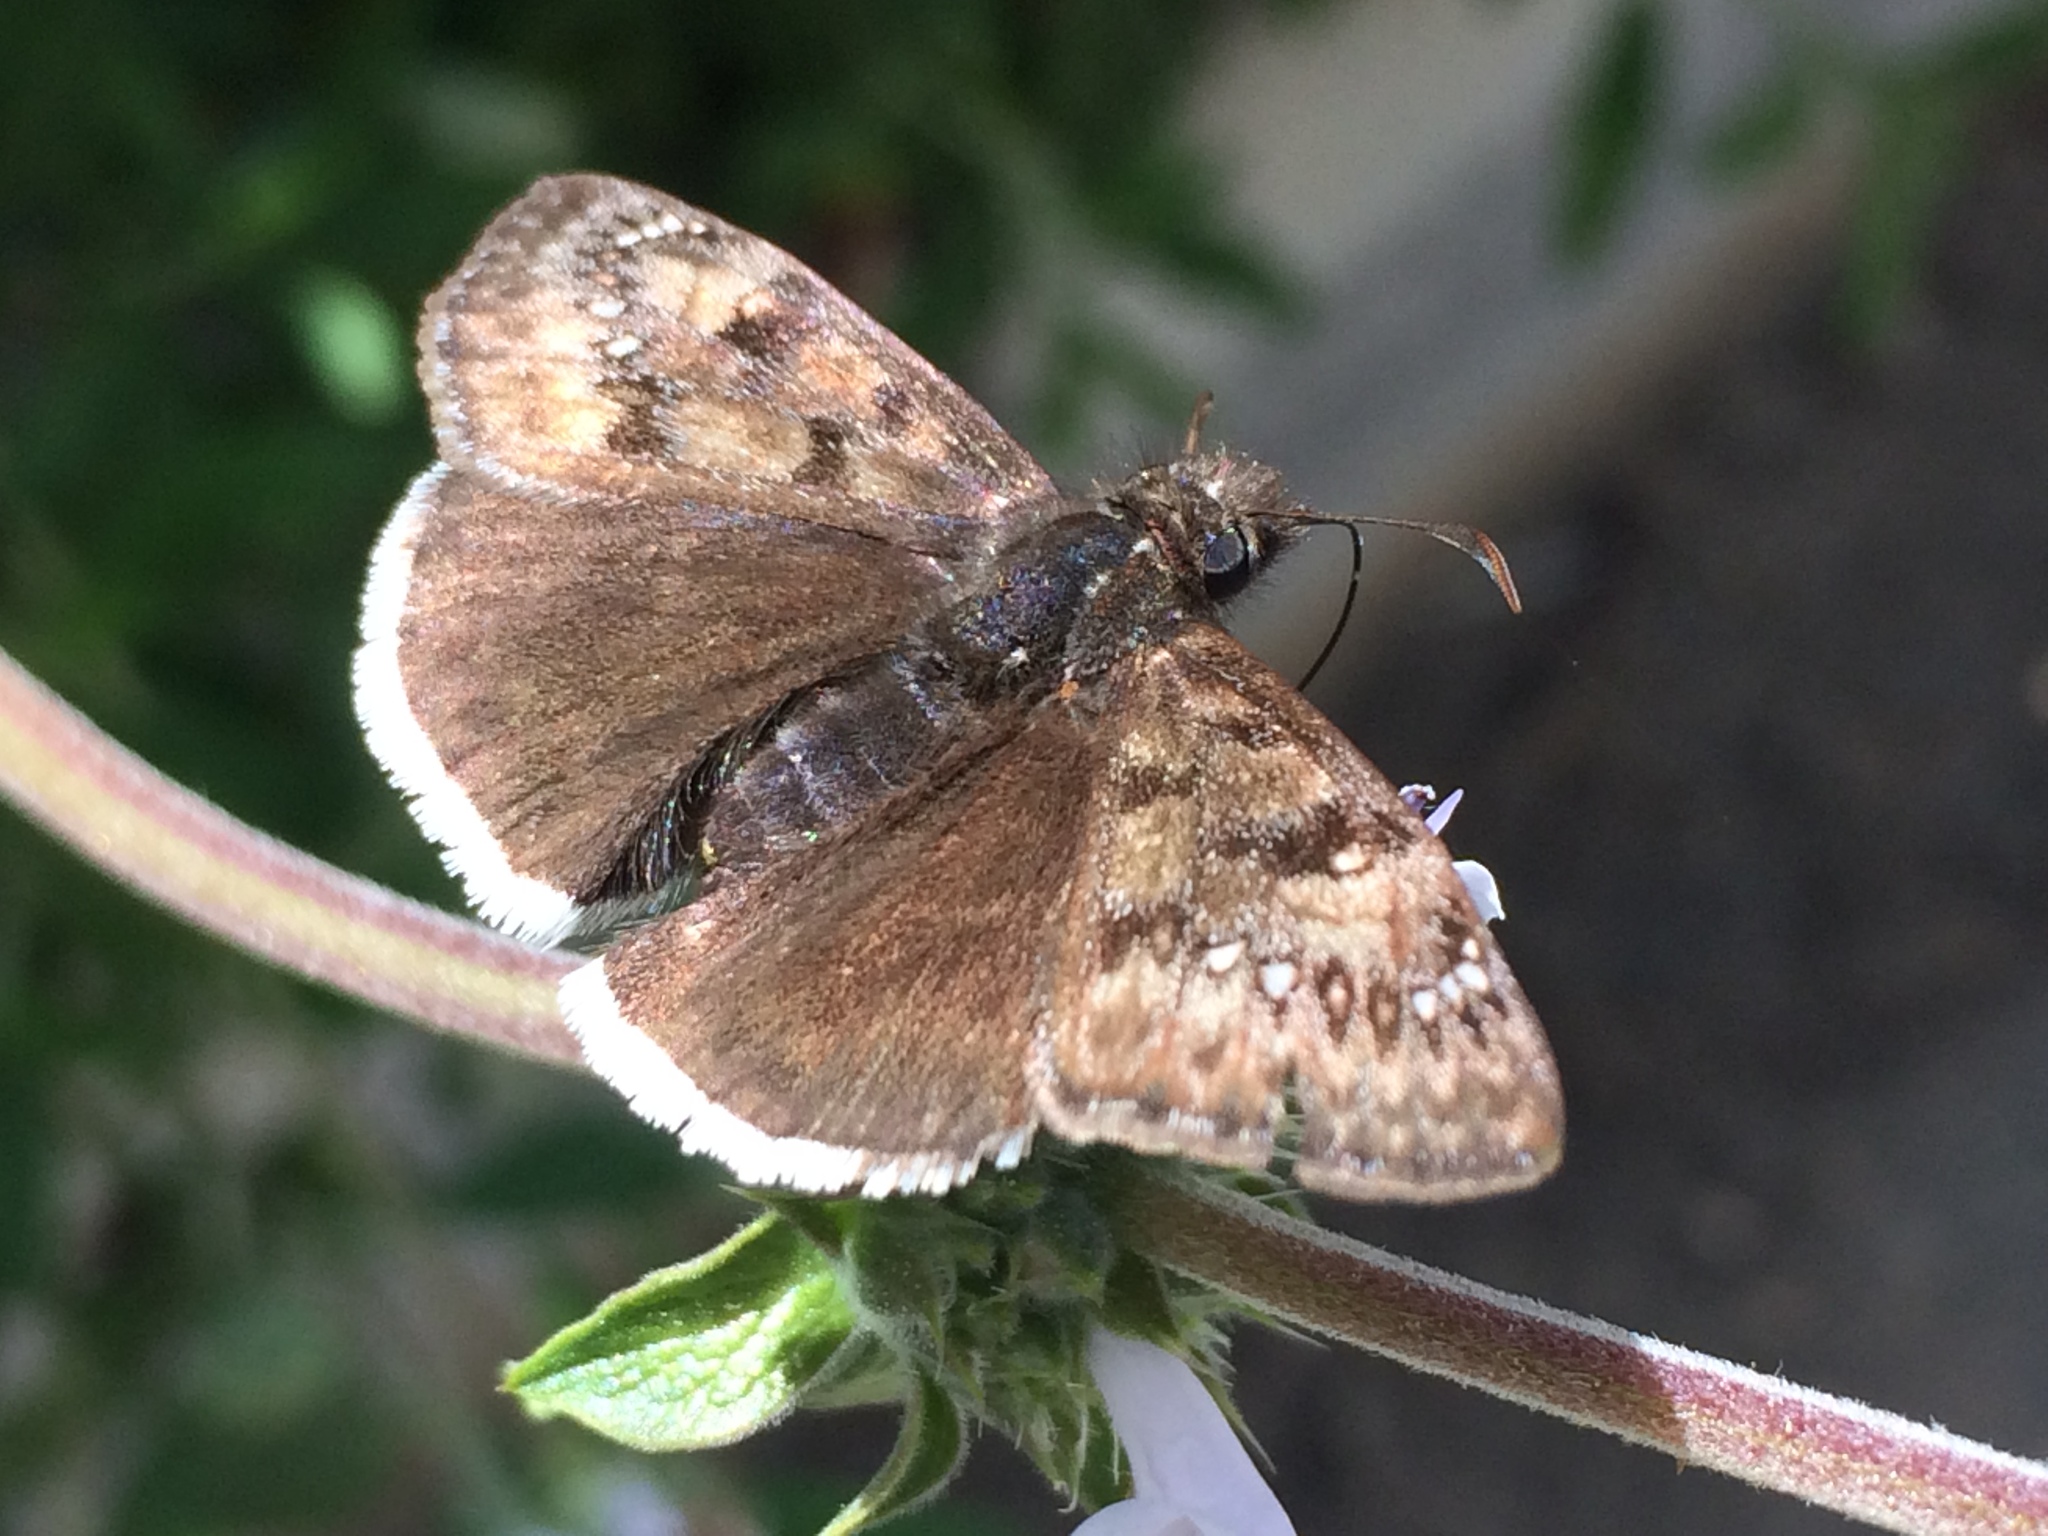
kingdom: Animalia
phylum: Arthropoda
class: Insecta
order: Lepidoptera
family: Hesperiidae
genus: Erynnis
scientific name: Erynnis tristis
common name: Mournful duskywing
